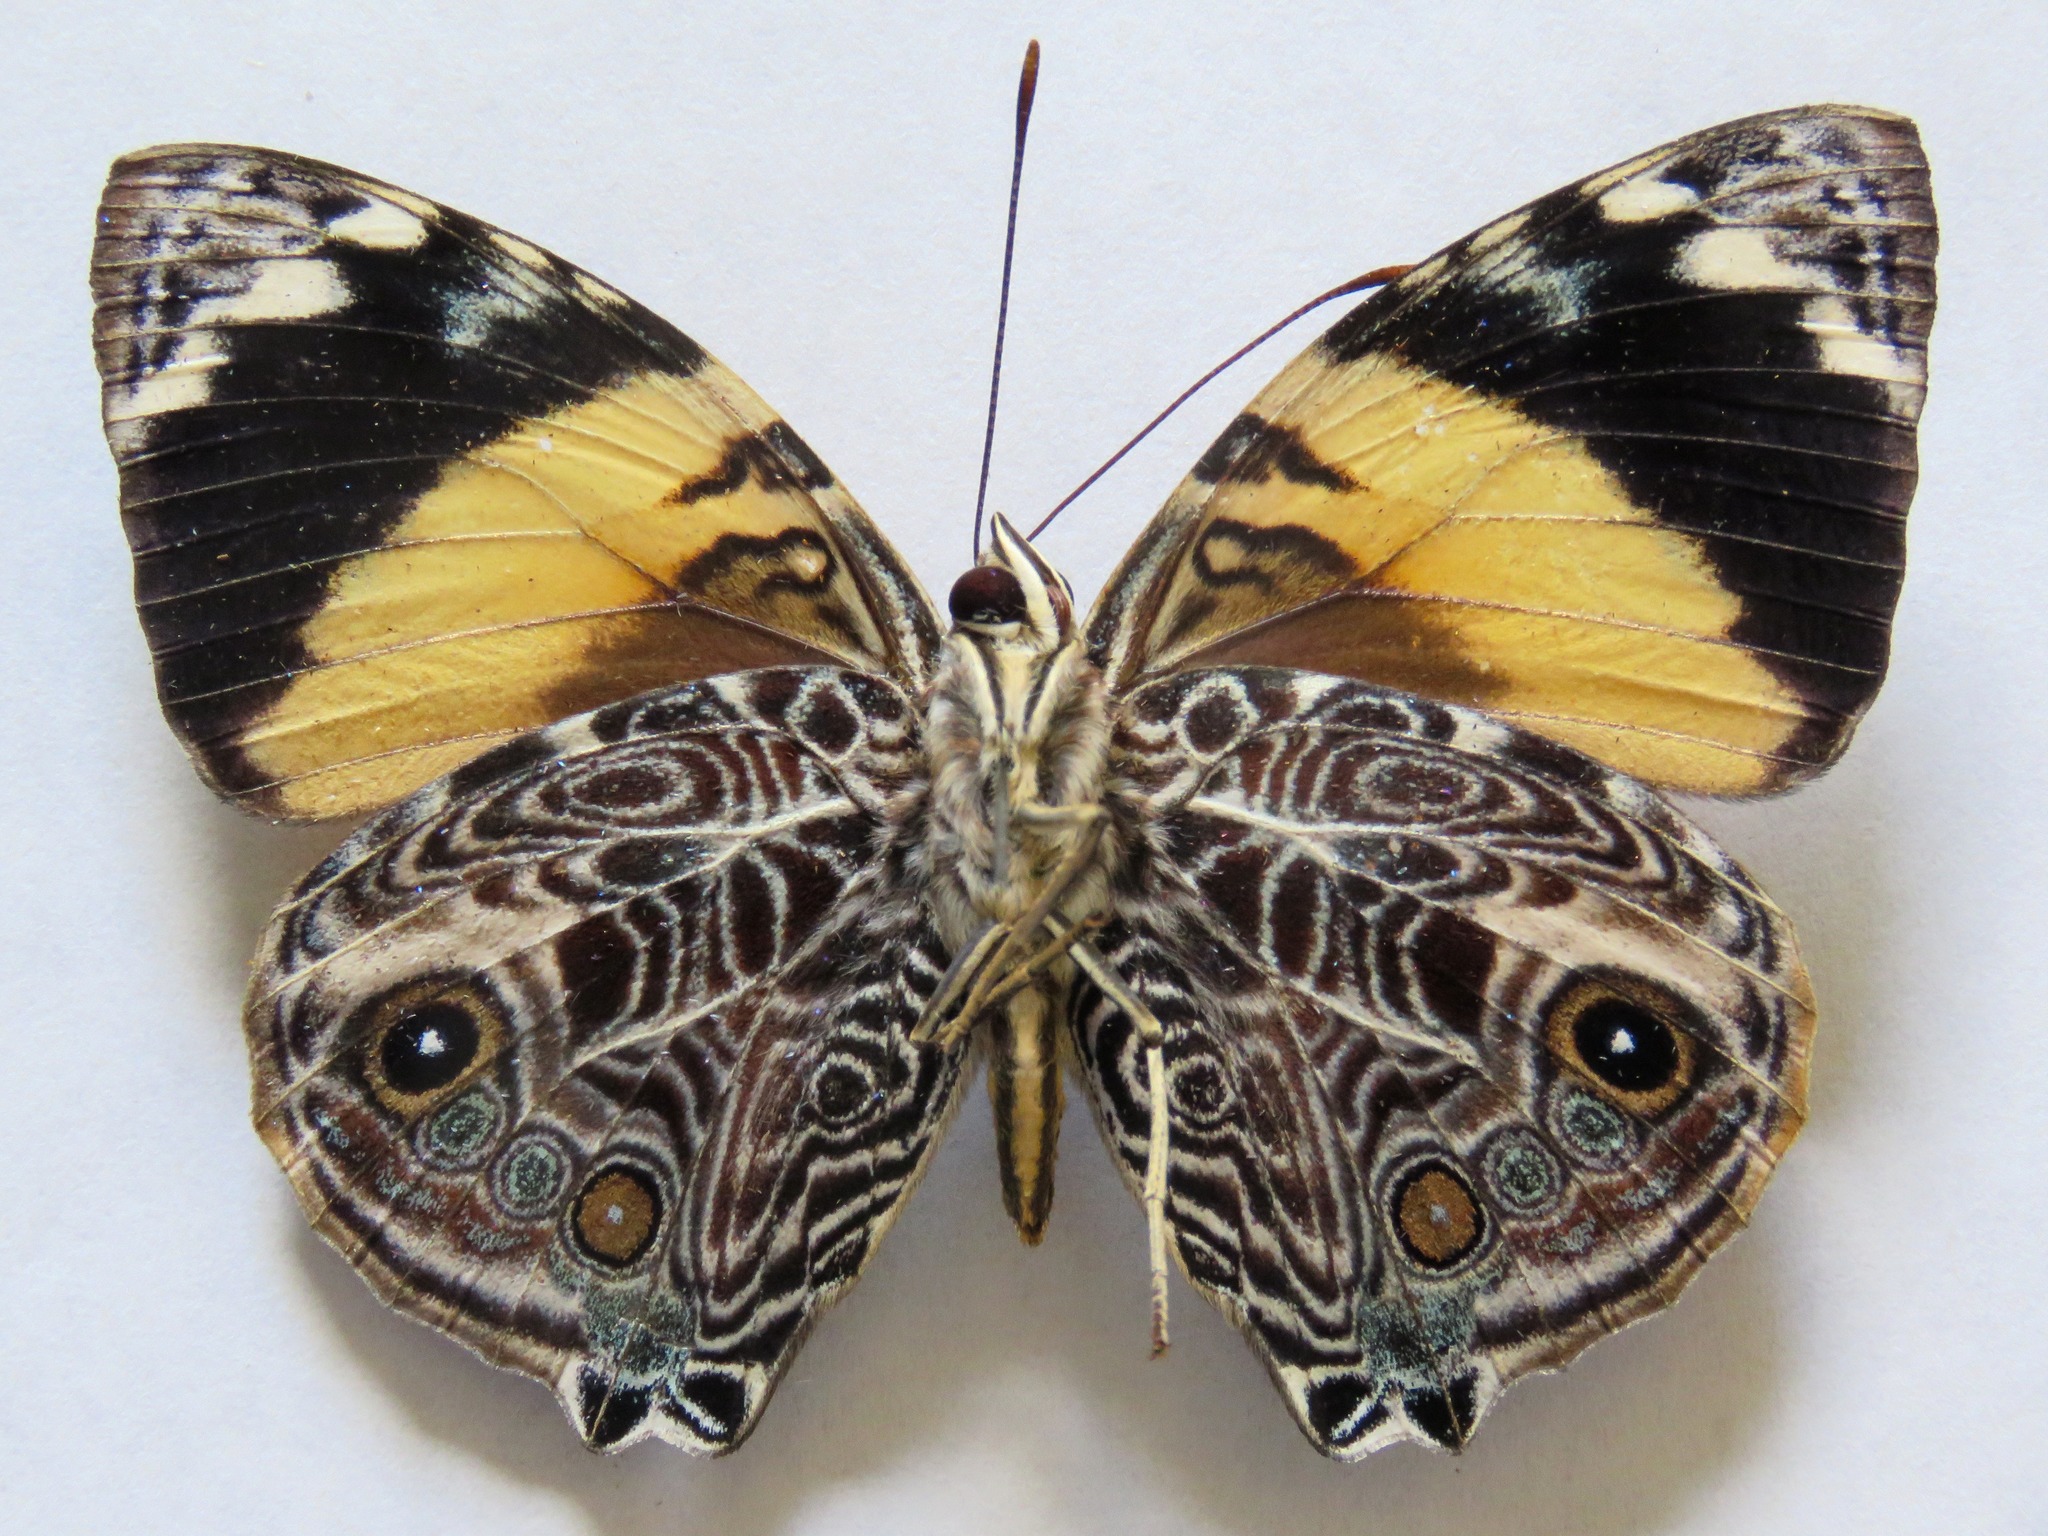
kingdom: Animalia
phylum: Arthropoda
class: Insecta
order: Lepidoptera
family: Nymphalidae
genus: Smyrna
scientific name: Smyrna blomfildia
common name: Blomfild's beauty
